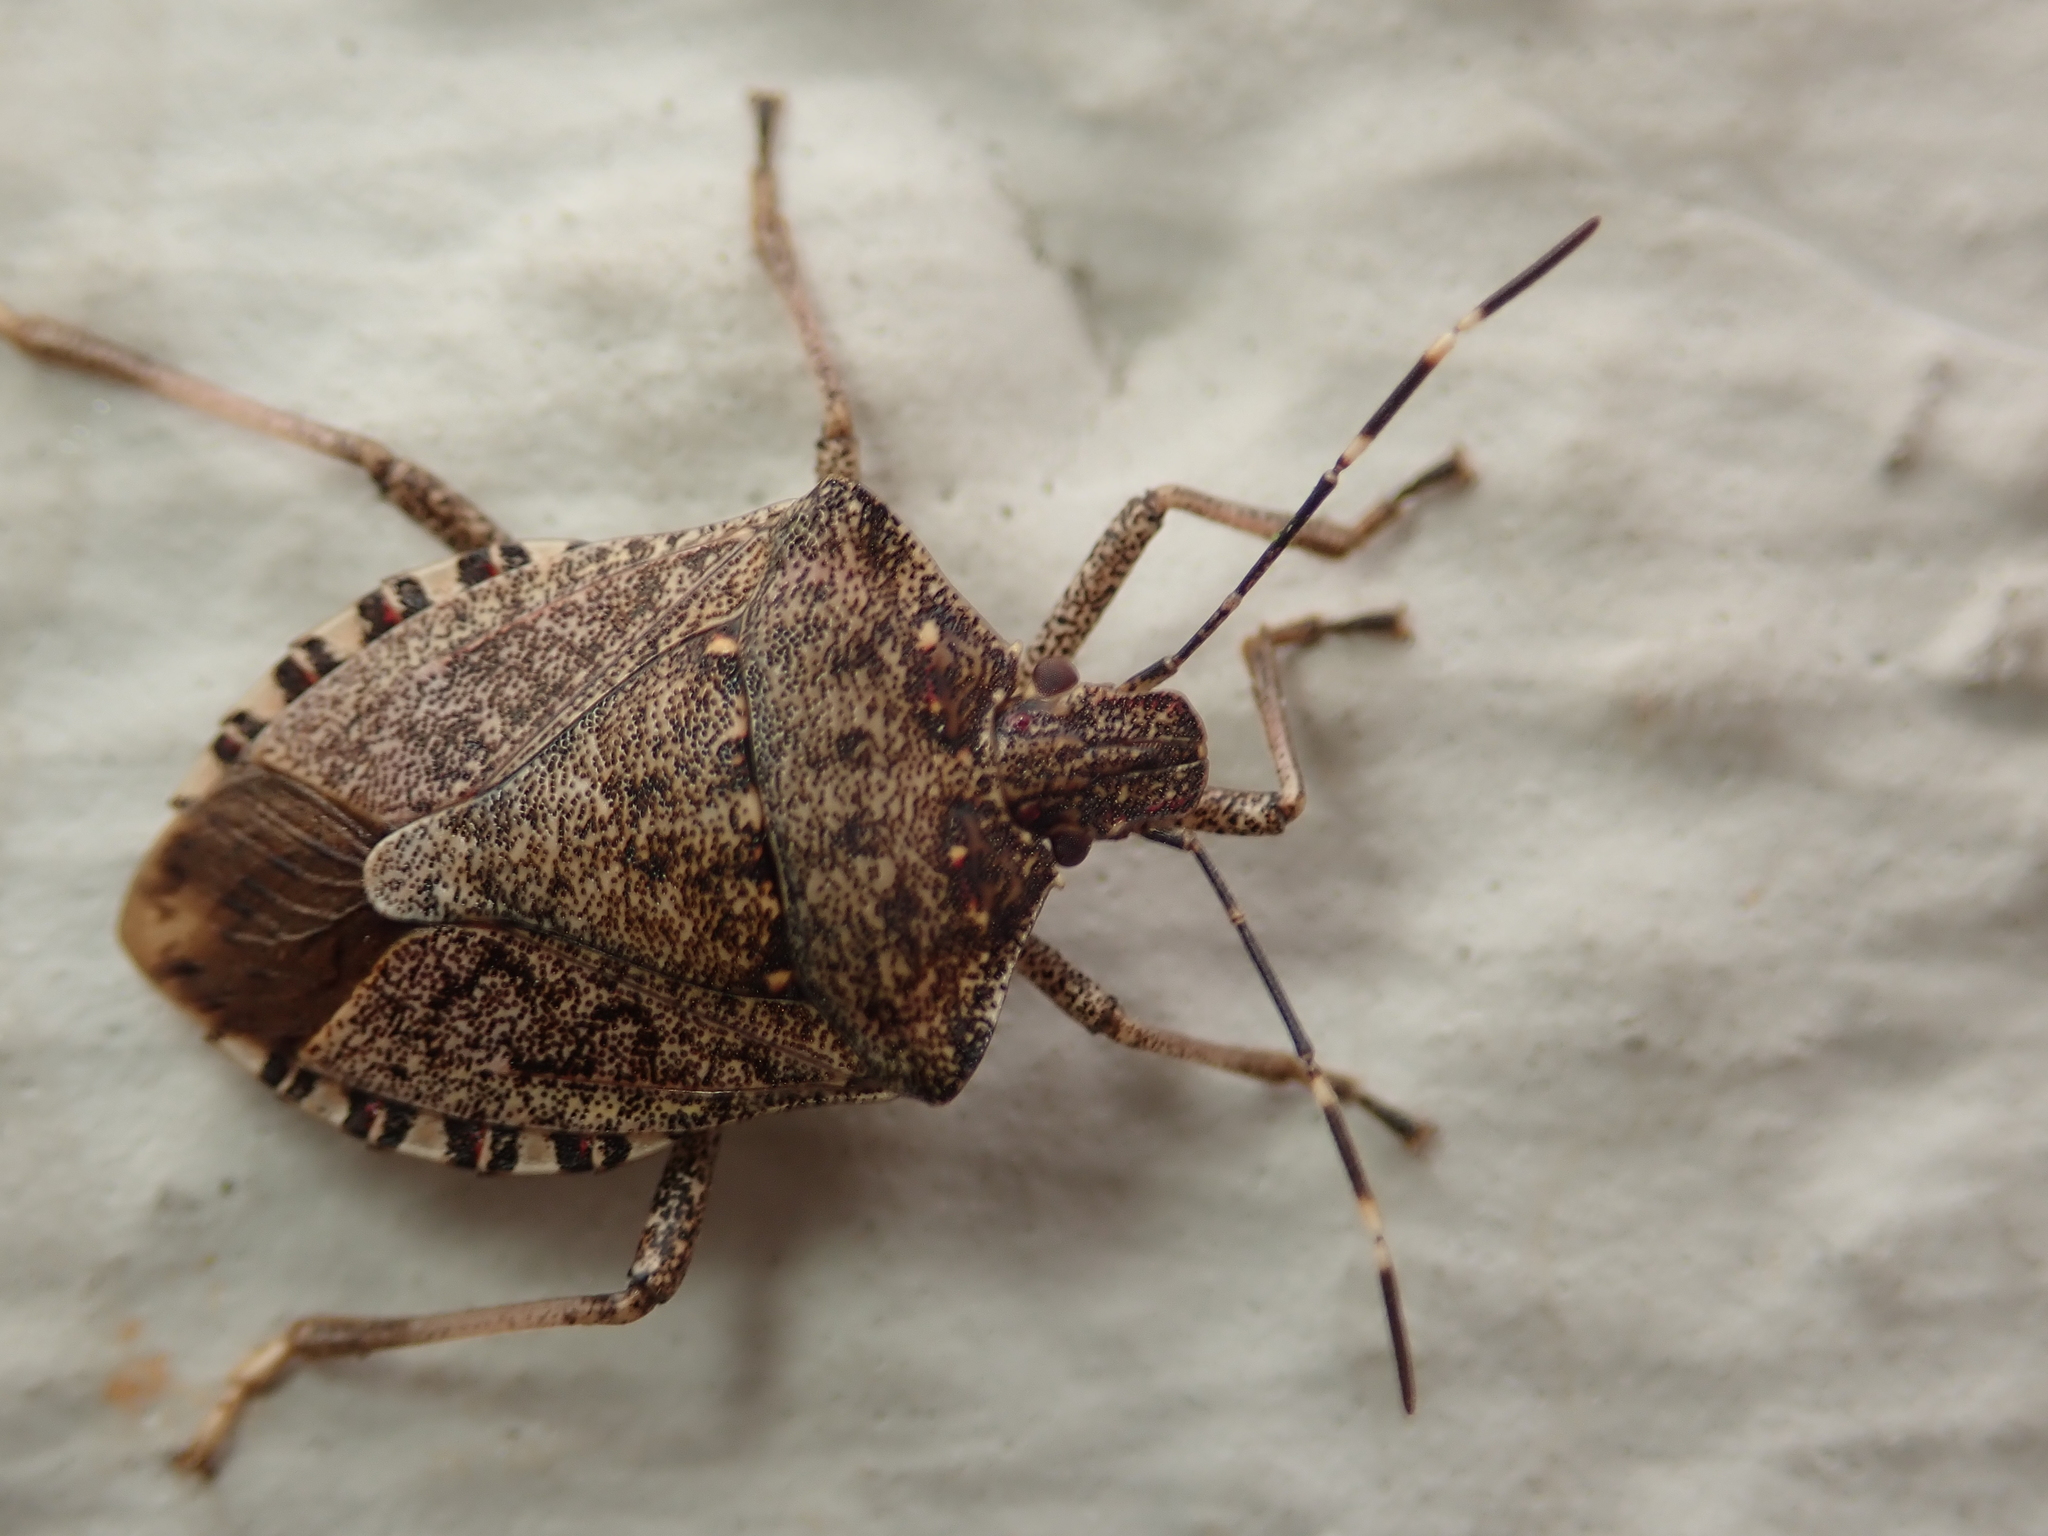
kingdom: Animalia
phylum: Arthropoda
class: Insecta
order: Hemiptera
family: Pentatomidae
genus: Halyomorpha
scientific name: Halyomorpha halys
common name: Brown marmorated stink bug
